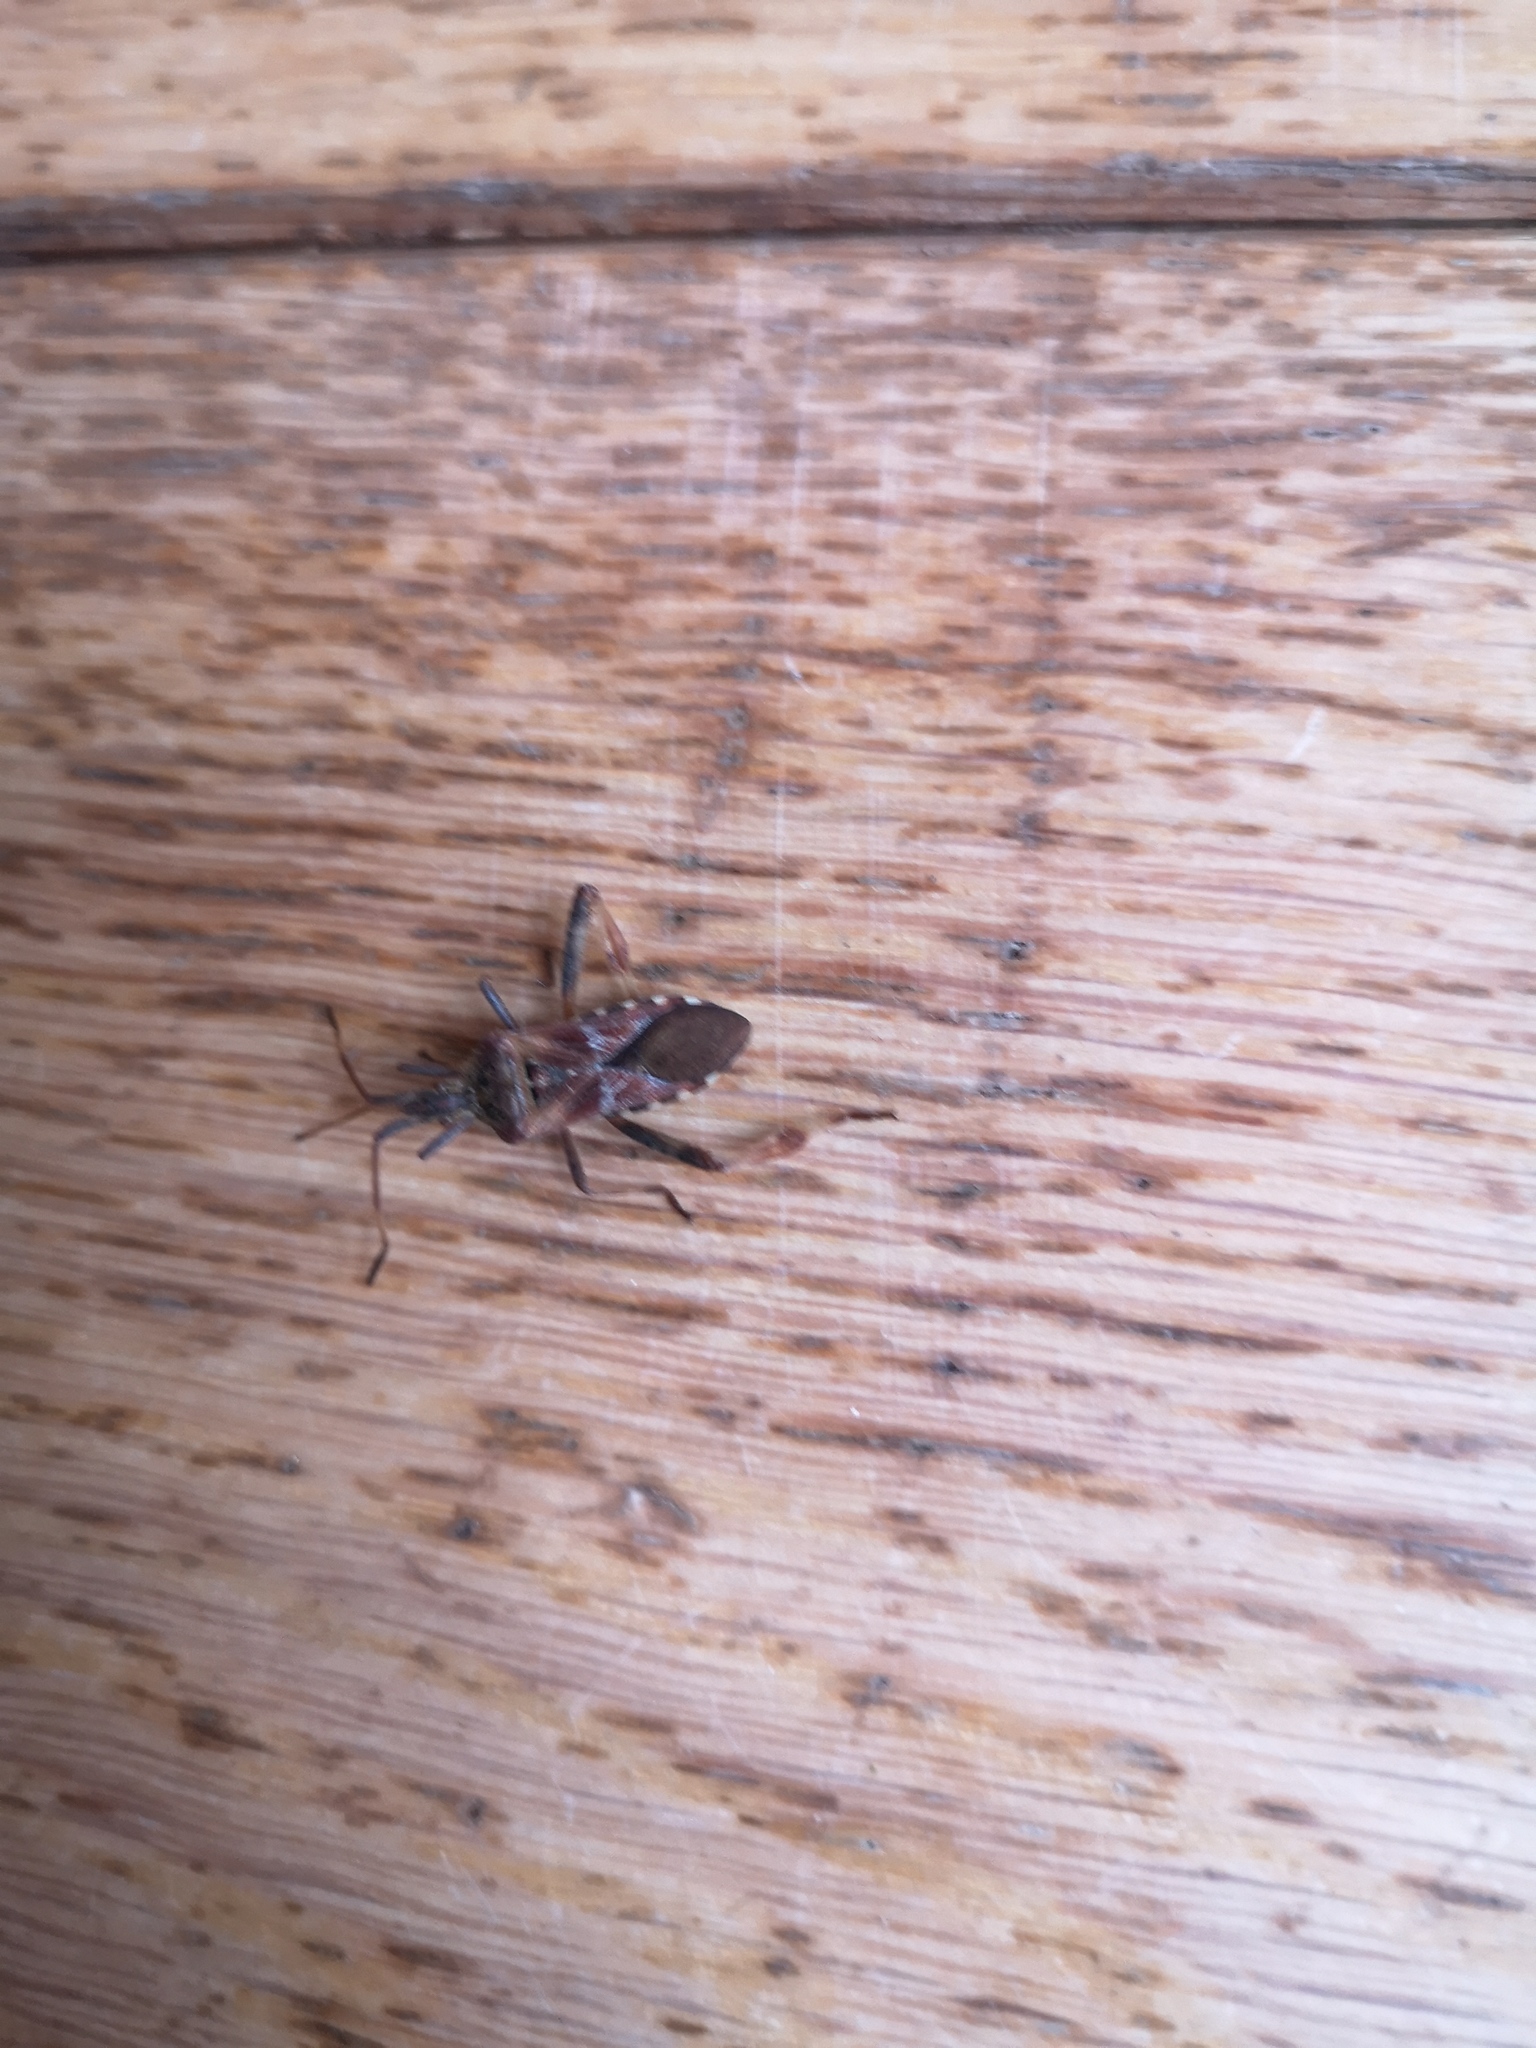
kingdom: Animalia
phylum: Arthropoda
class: Insecta
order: Hemiptera
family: Coreidae
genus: Leptoglossus
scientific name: Leptoglossus occidentalis
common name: Western conifer-seed bug
